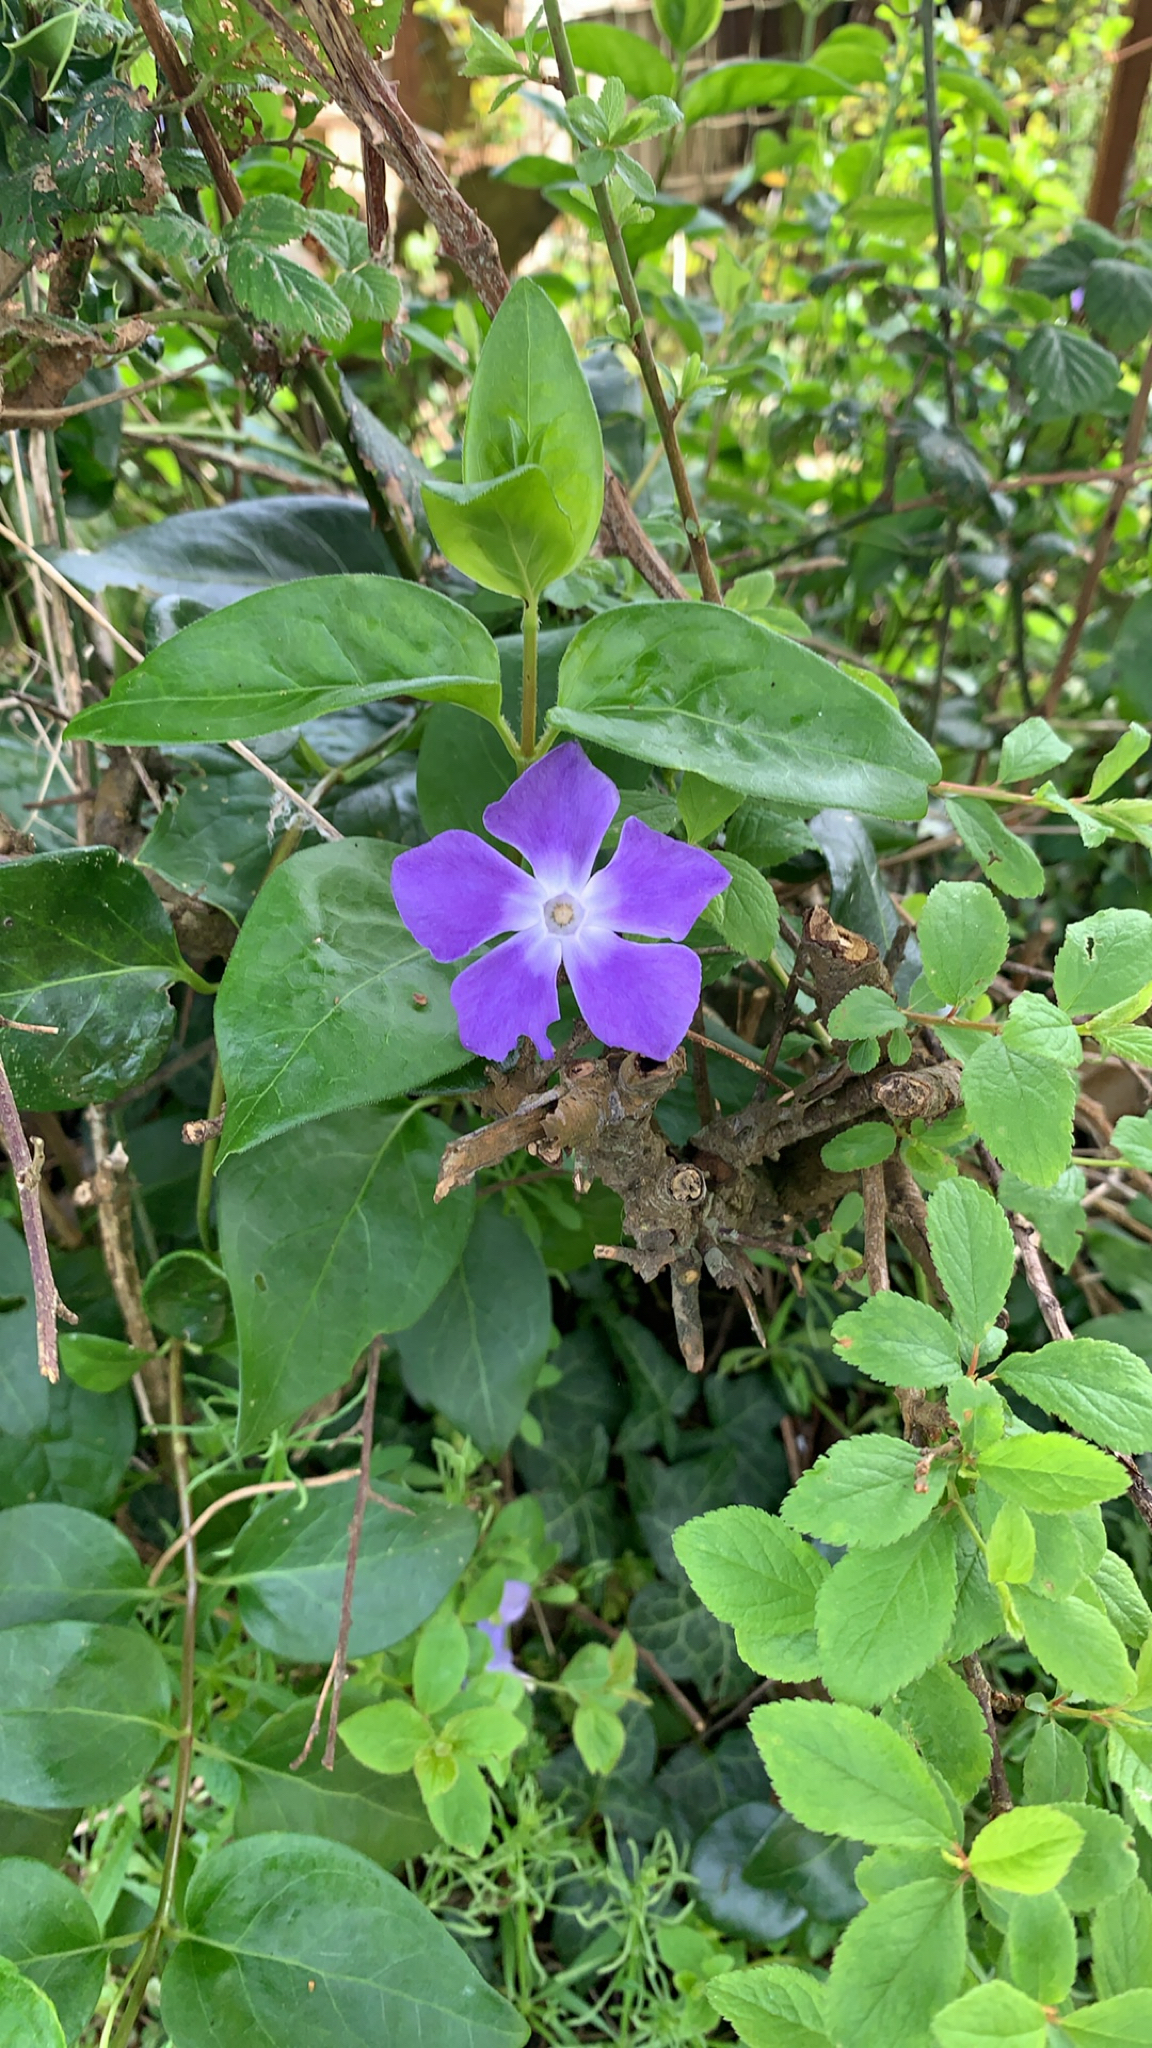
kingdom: Plantae
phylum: Tracheophyta
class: Magnoliopsida
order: Gentianales
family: Apocynaceae
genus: Vinca
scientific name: Vinca major
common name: Greater periwinkle
